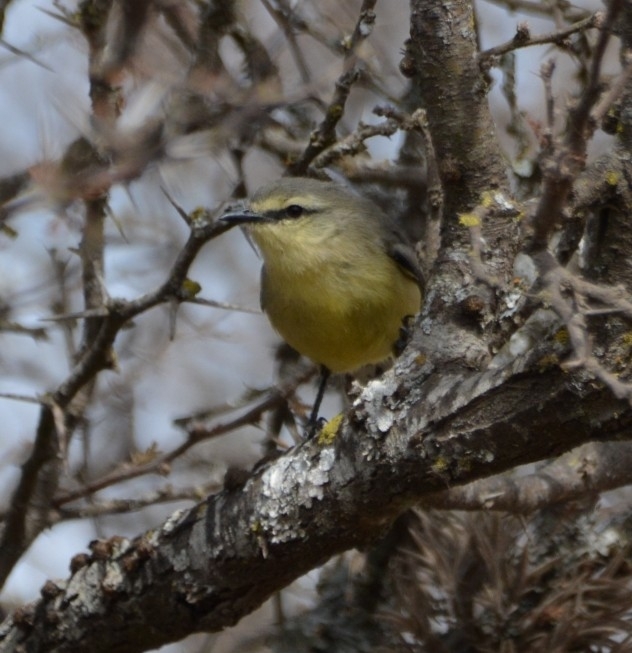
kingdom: Animalia
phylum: Chordata
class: Aves
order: Passeriformes
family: Tyrannidae
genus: Stigmatura
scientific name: Stigmatura budytoides
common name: Greater wagtail-tyrant
